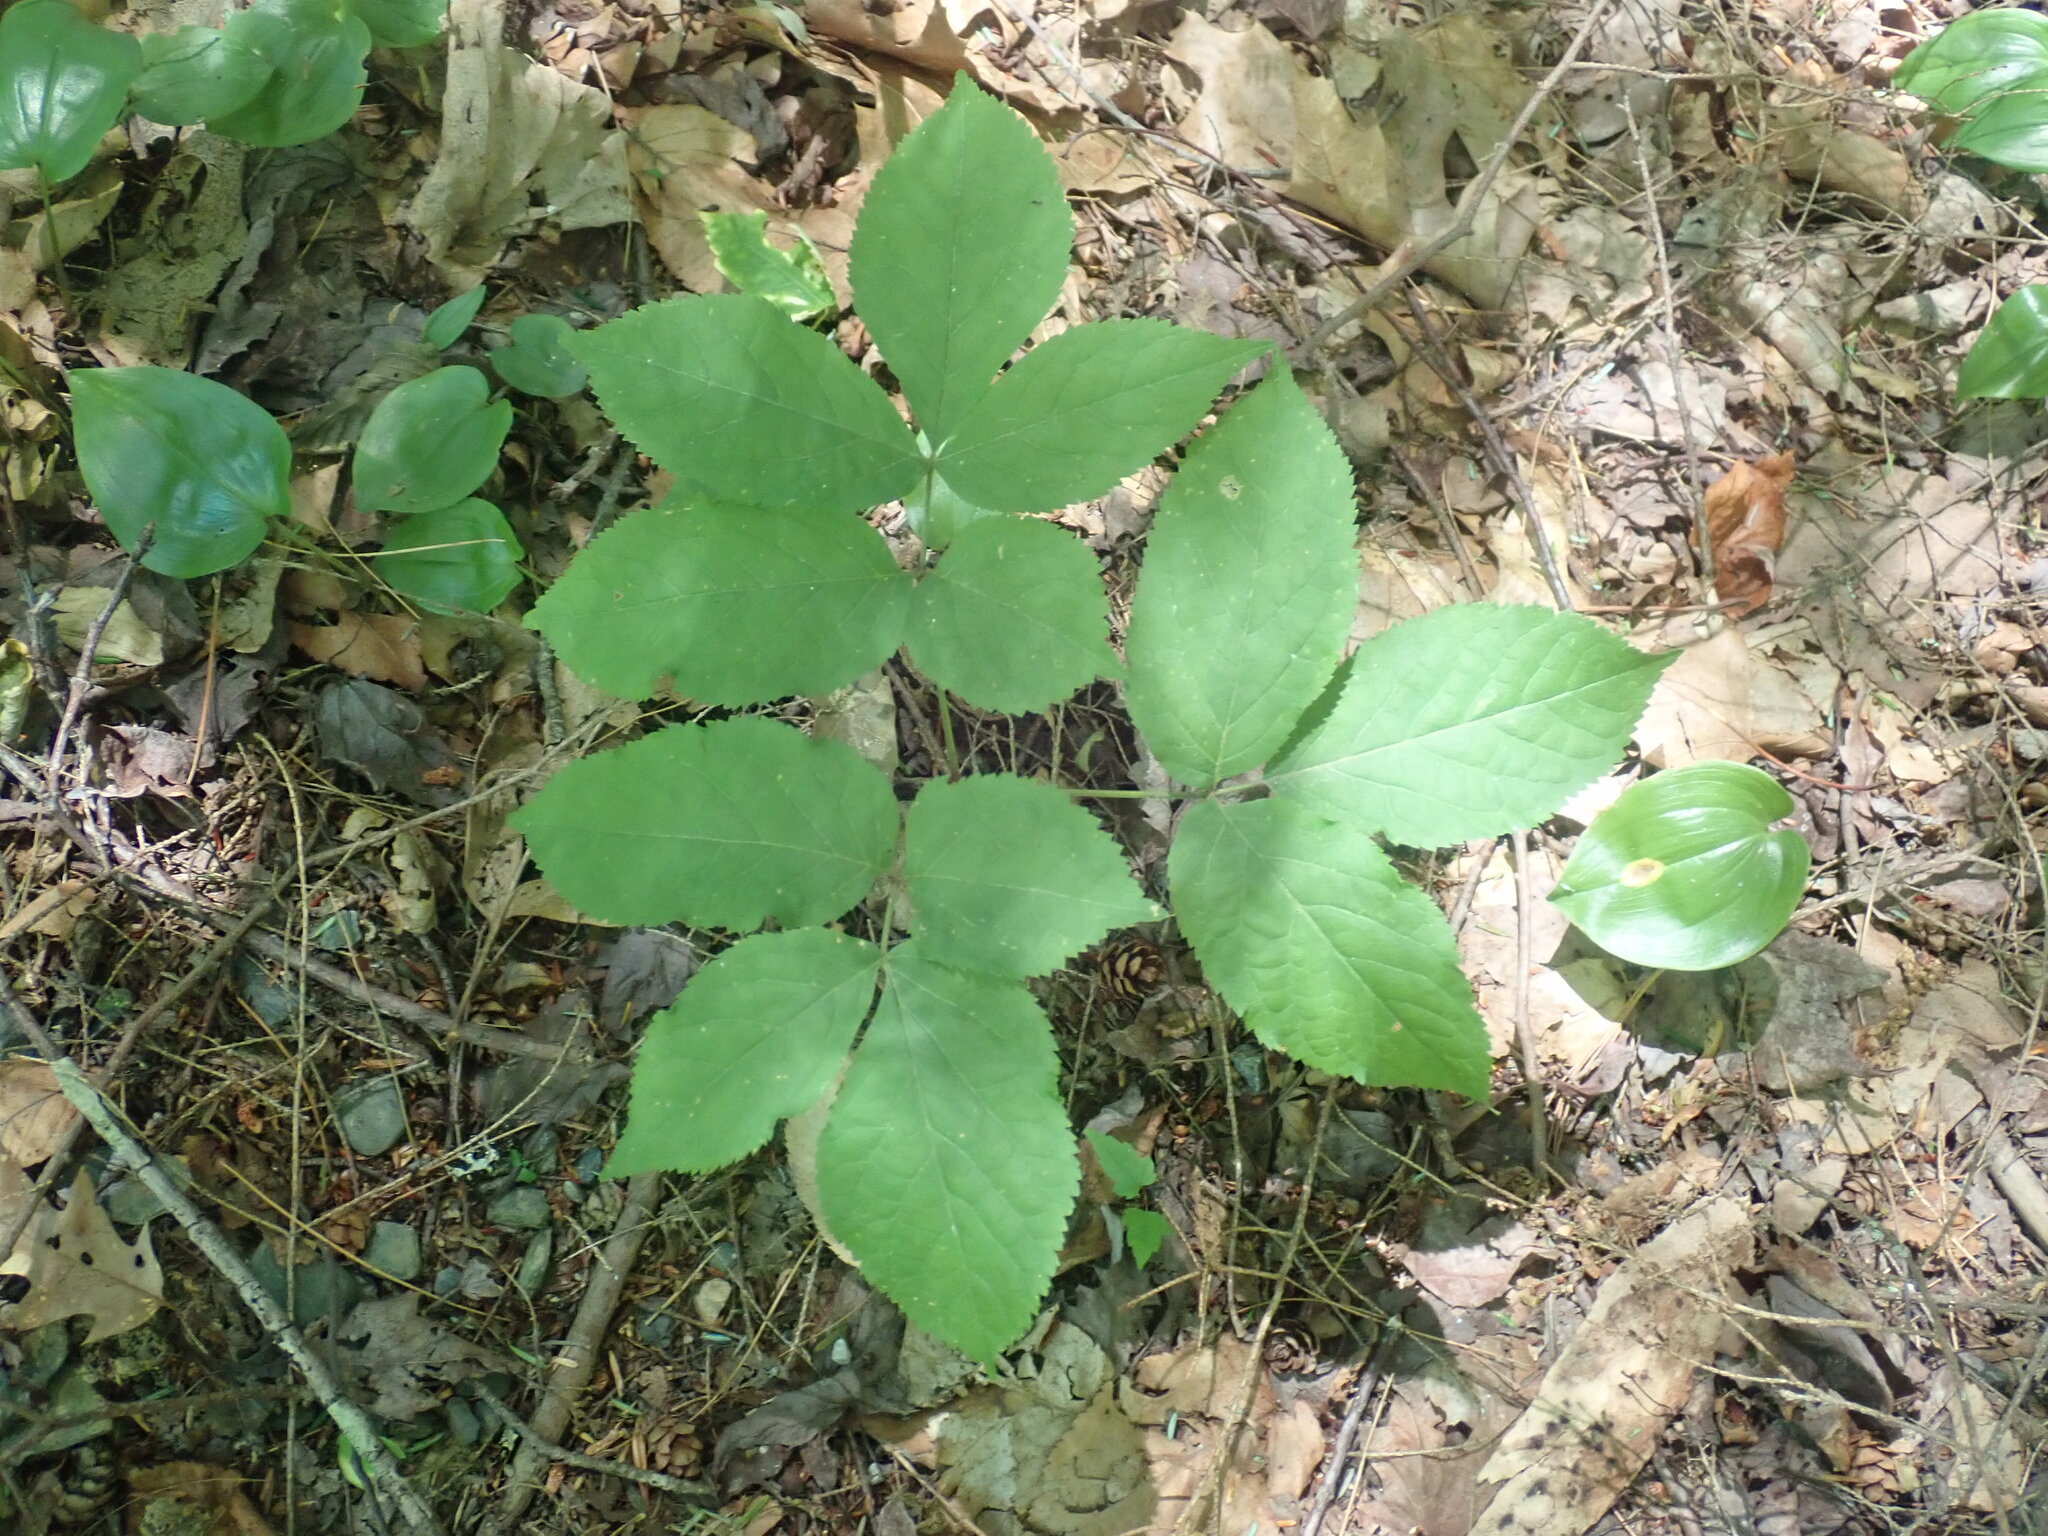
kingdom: Plantae
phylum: Tracheophyta
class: Magnoliopsida
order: Apiales
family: Araliaceae
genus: Aralia
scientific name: Aralia nudicaulis
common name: Wild sarsaparilla
